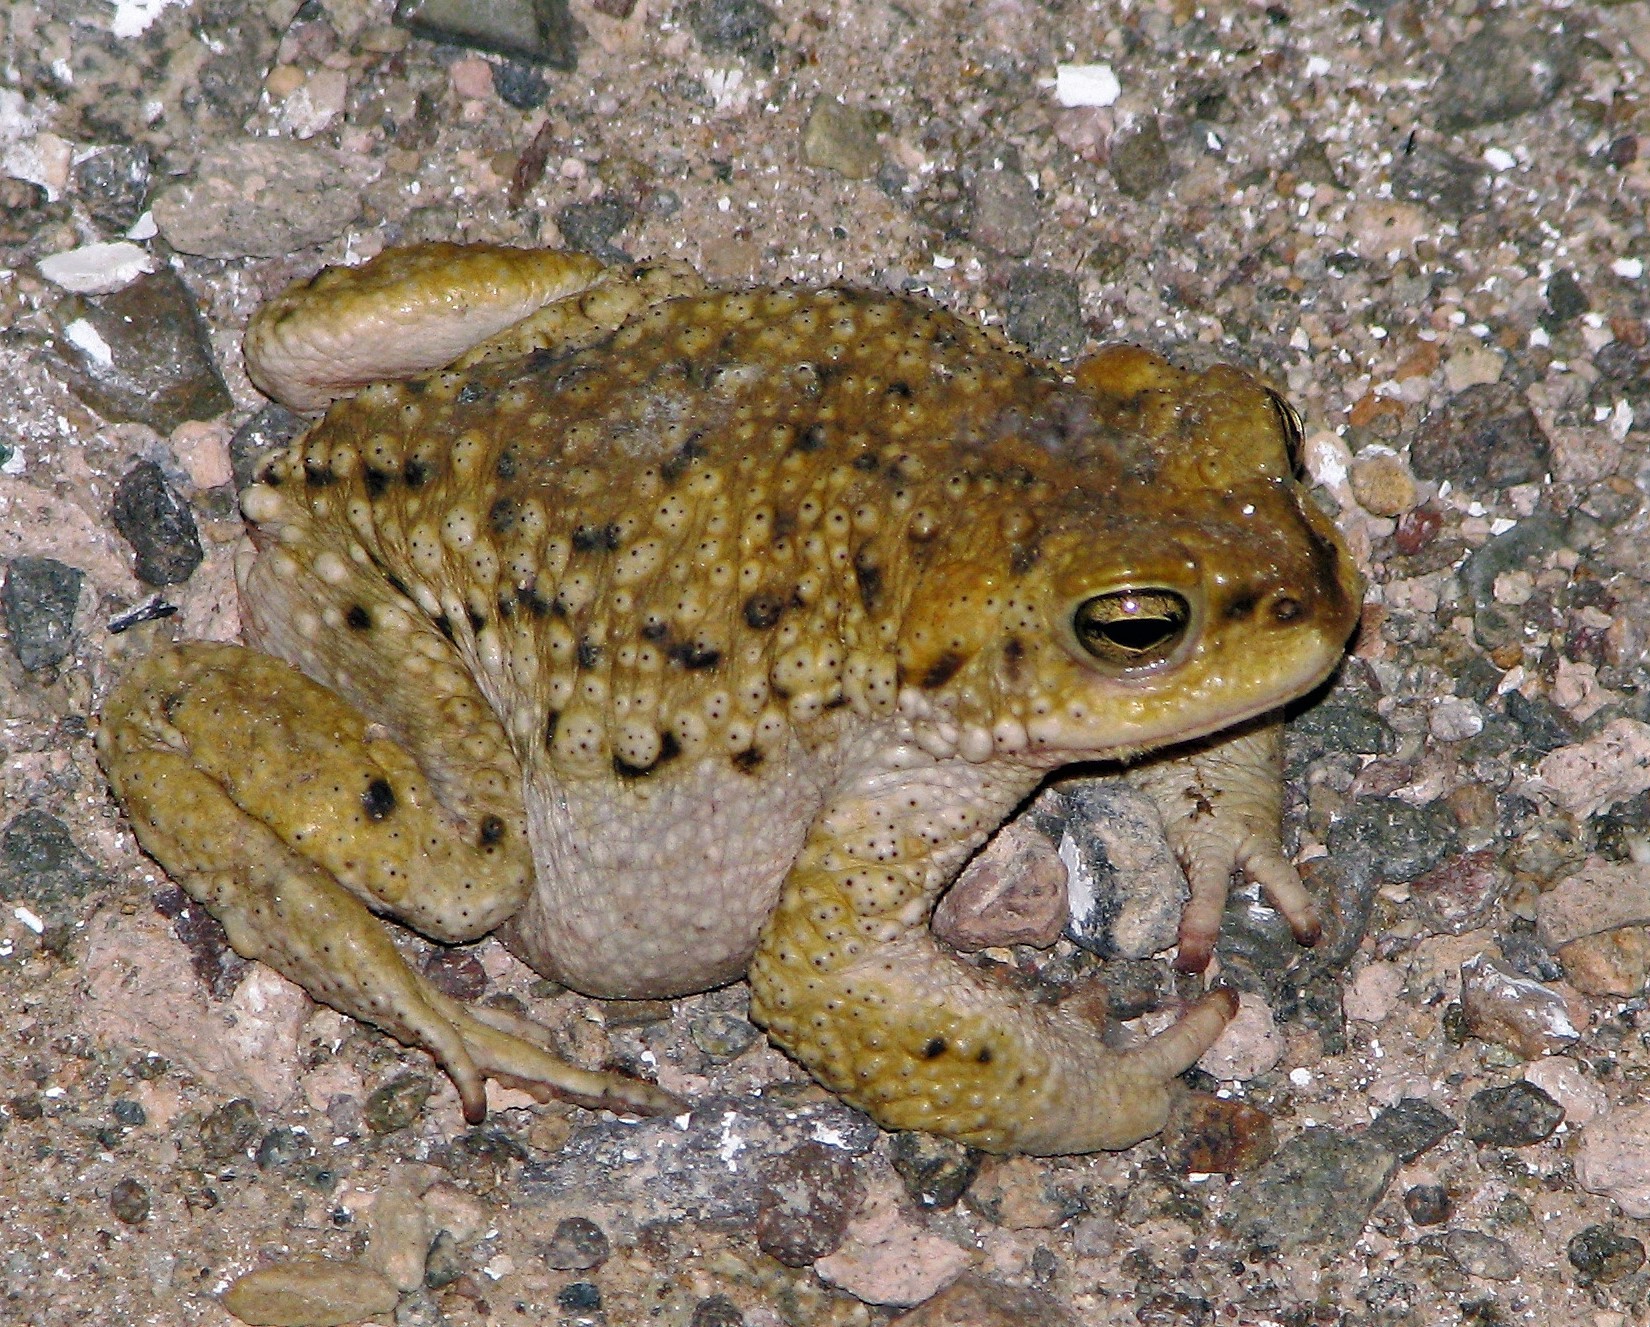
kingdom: Animalia
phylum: Chordata
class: Amphibia
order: Anura
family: Bufonidae
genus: Rhinella
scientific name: Rhinella spinulosa
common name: Warty toad
